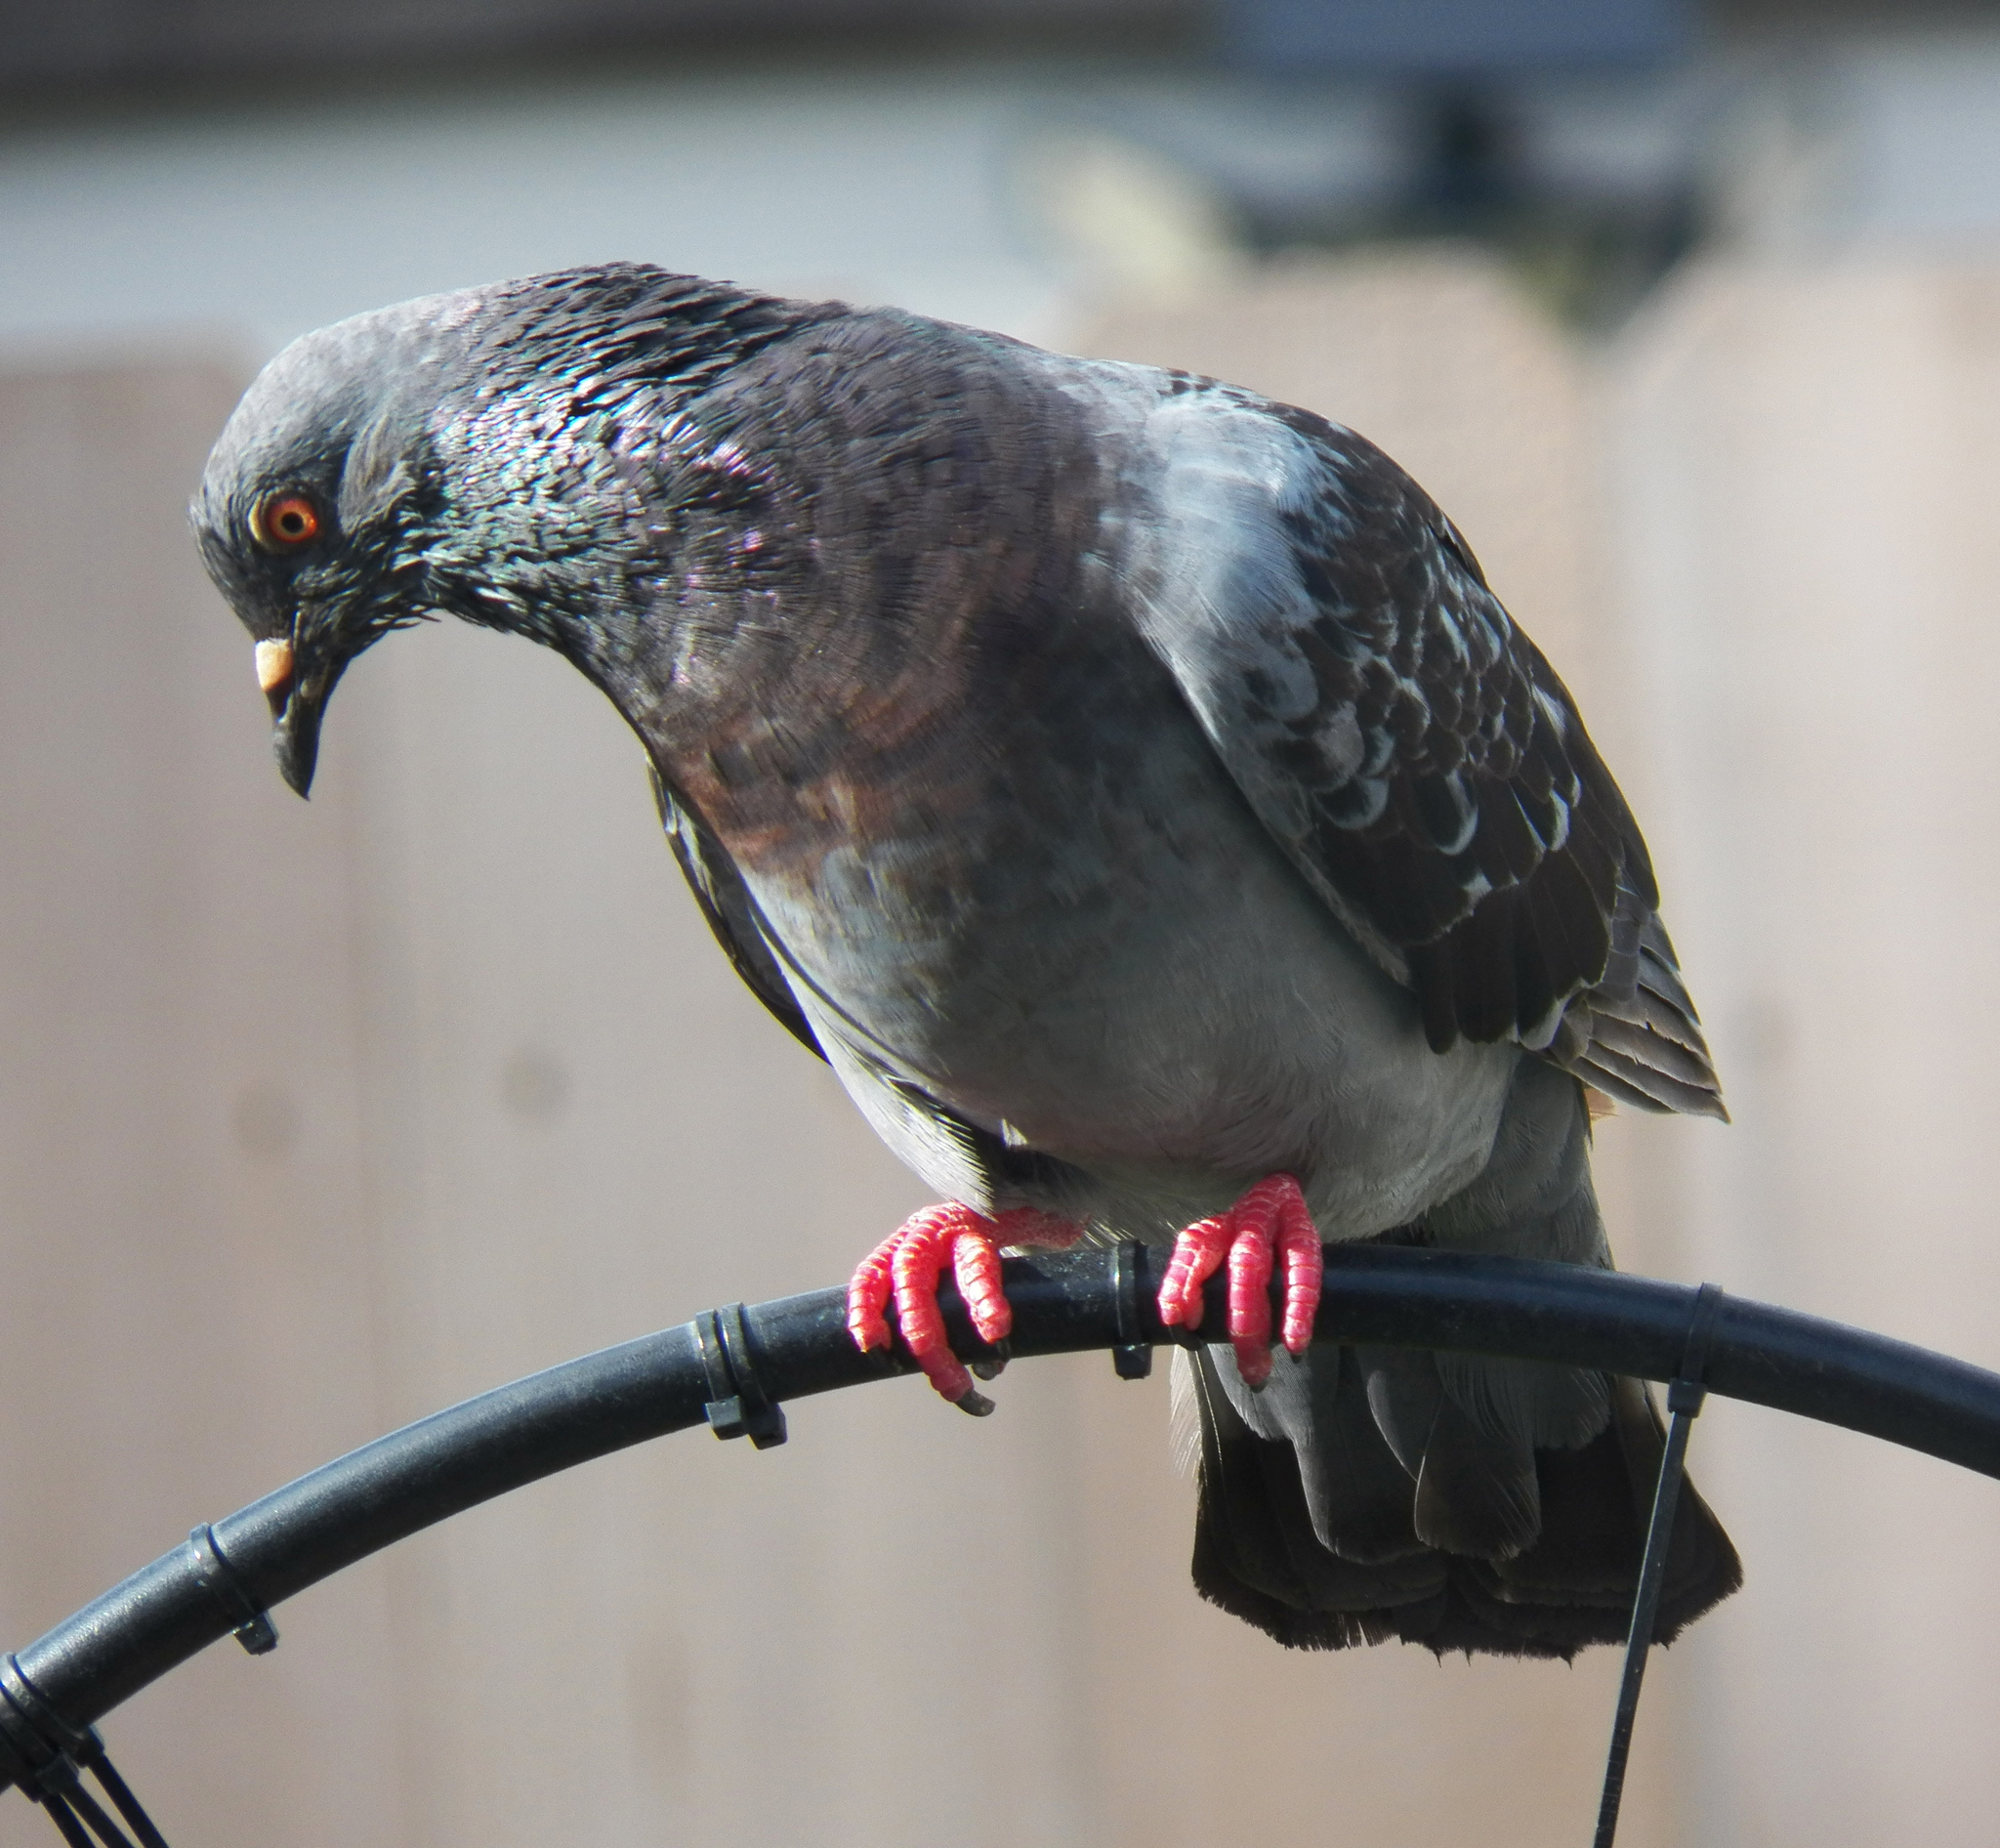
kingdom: Animalia
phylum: Chordata
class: Aves
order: Columbiformes
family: Columbidae
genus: Columba
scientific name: Columba livia
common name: Rock pigeon
